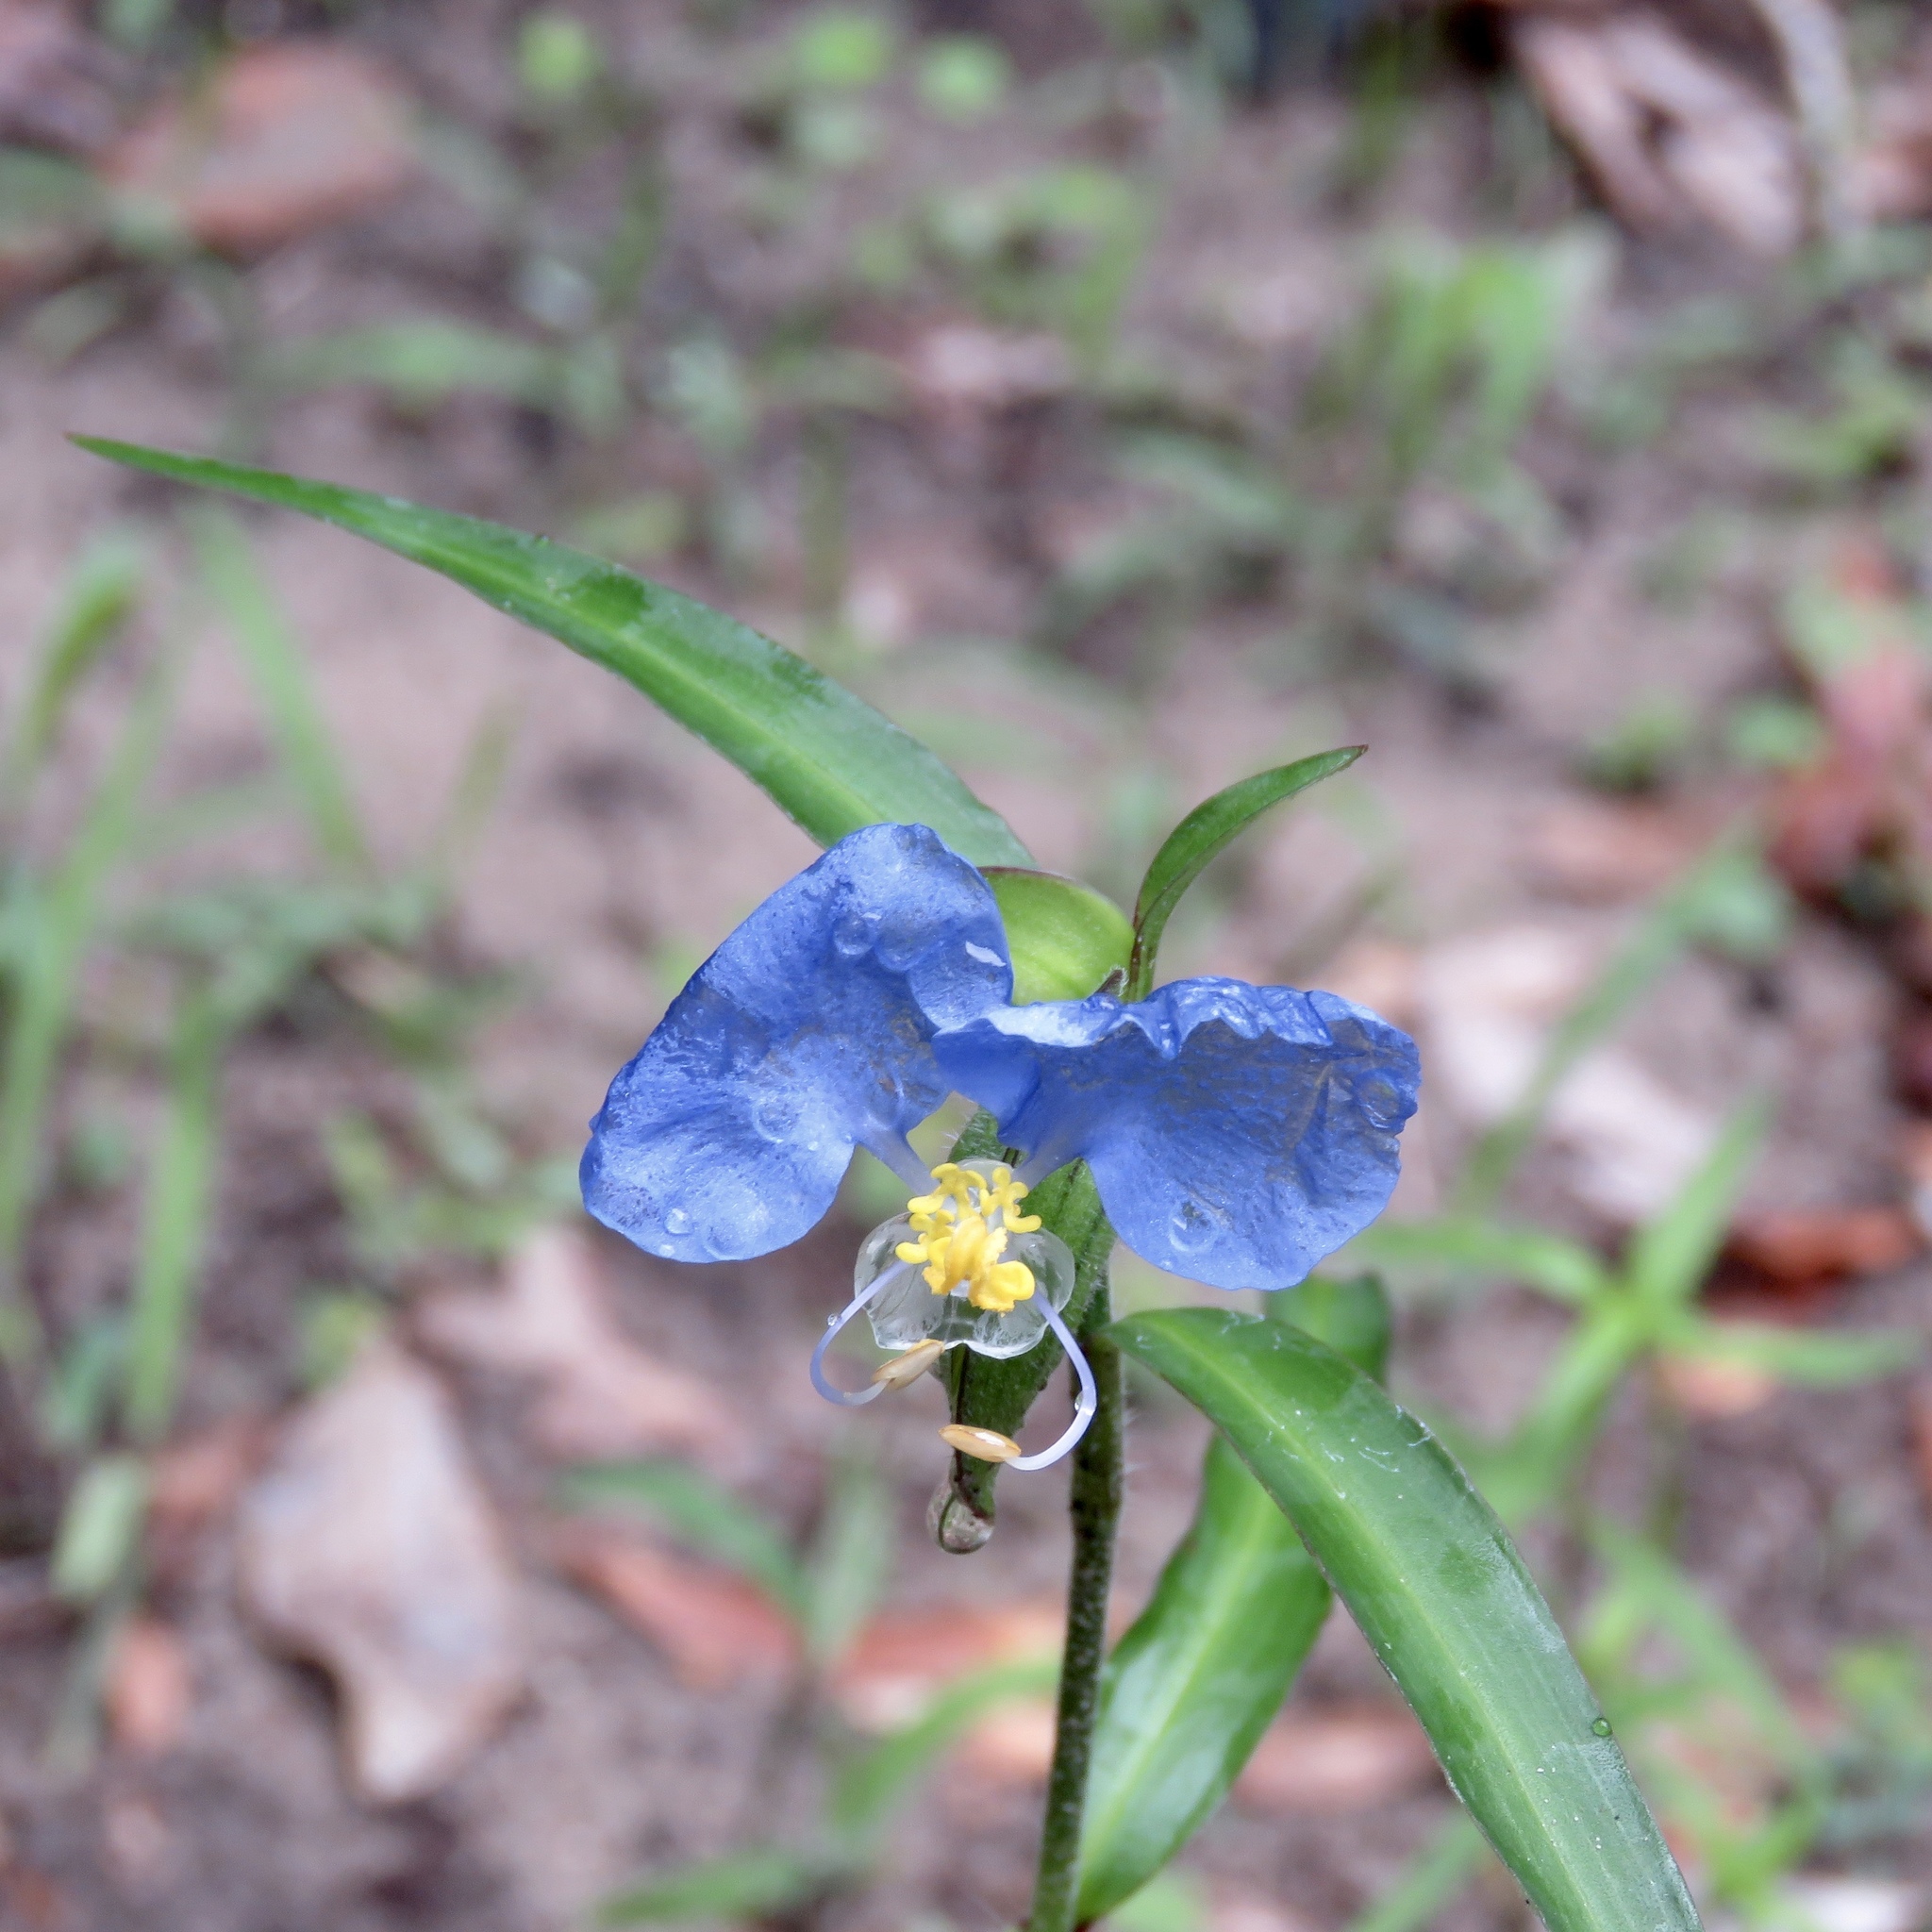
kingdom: Plantae
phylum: Tracheophyta
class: Liliopsida
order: Commelinales
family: Commelinaceae
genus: Commelina
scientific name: Commelina erecta
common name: Blousel blommetjie
